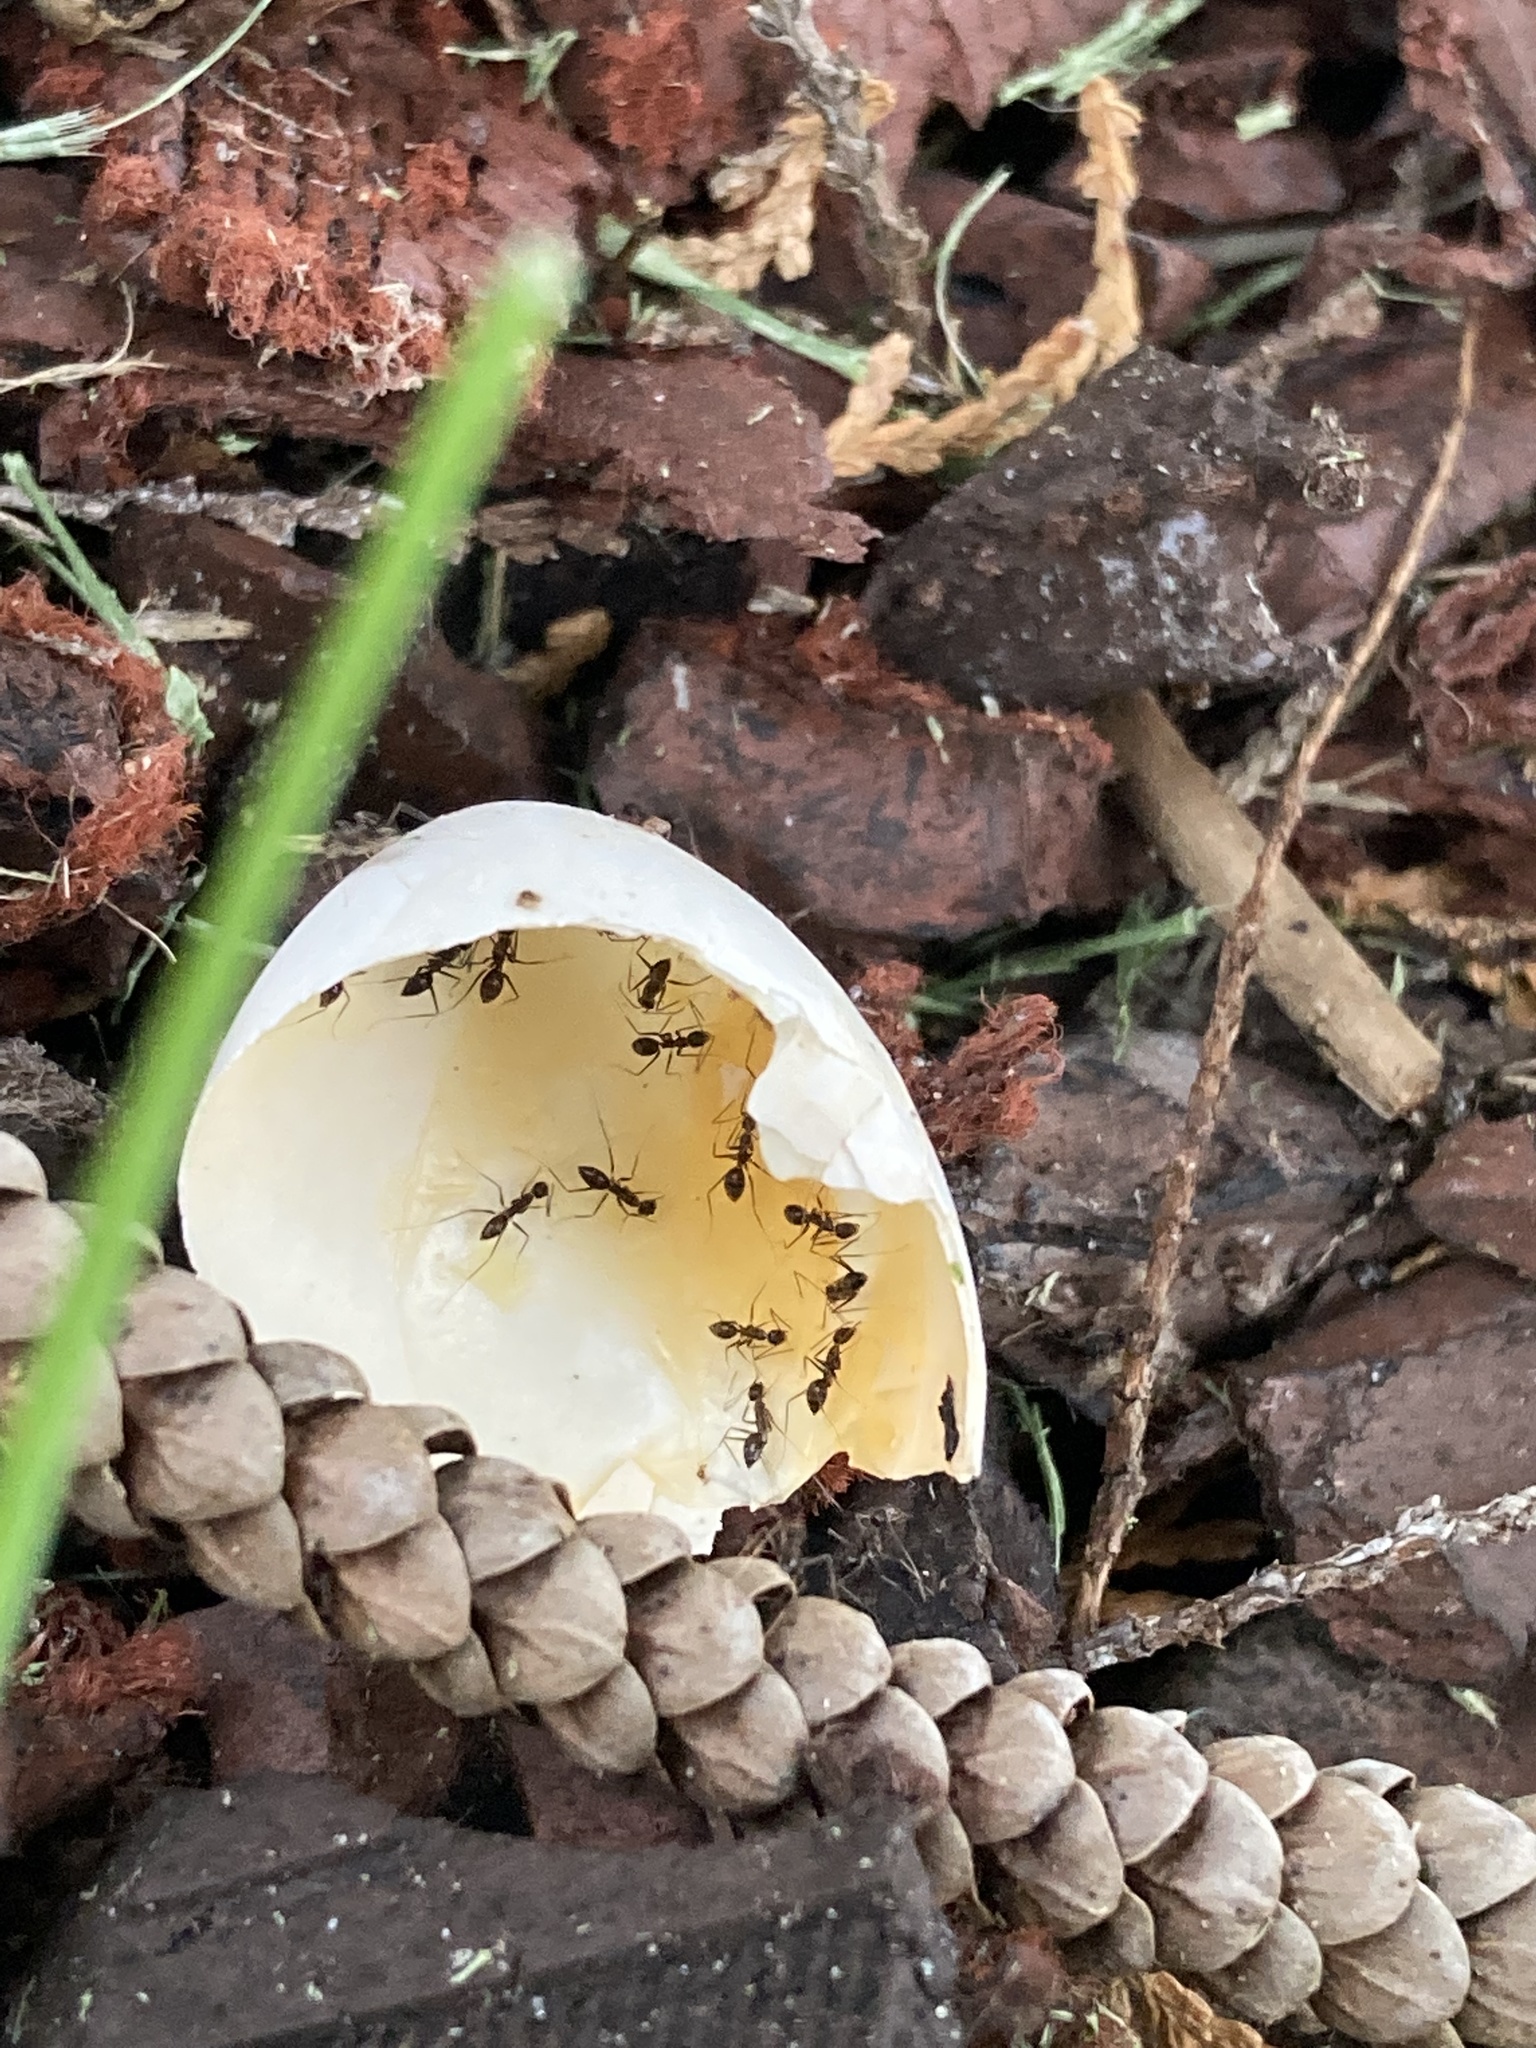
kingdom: Animalia
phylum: Arthropoda
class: Insecta
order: Hymenoptera
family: Formicidae
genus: Paratrechina
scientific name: Paratrechina longicornis
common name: Longhorned crazy ant
